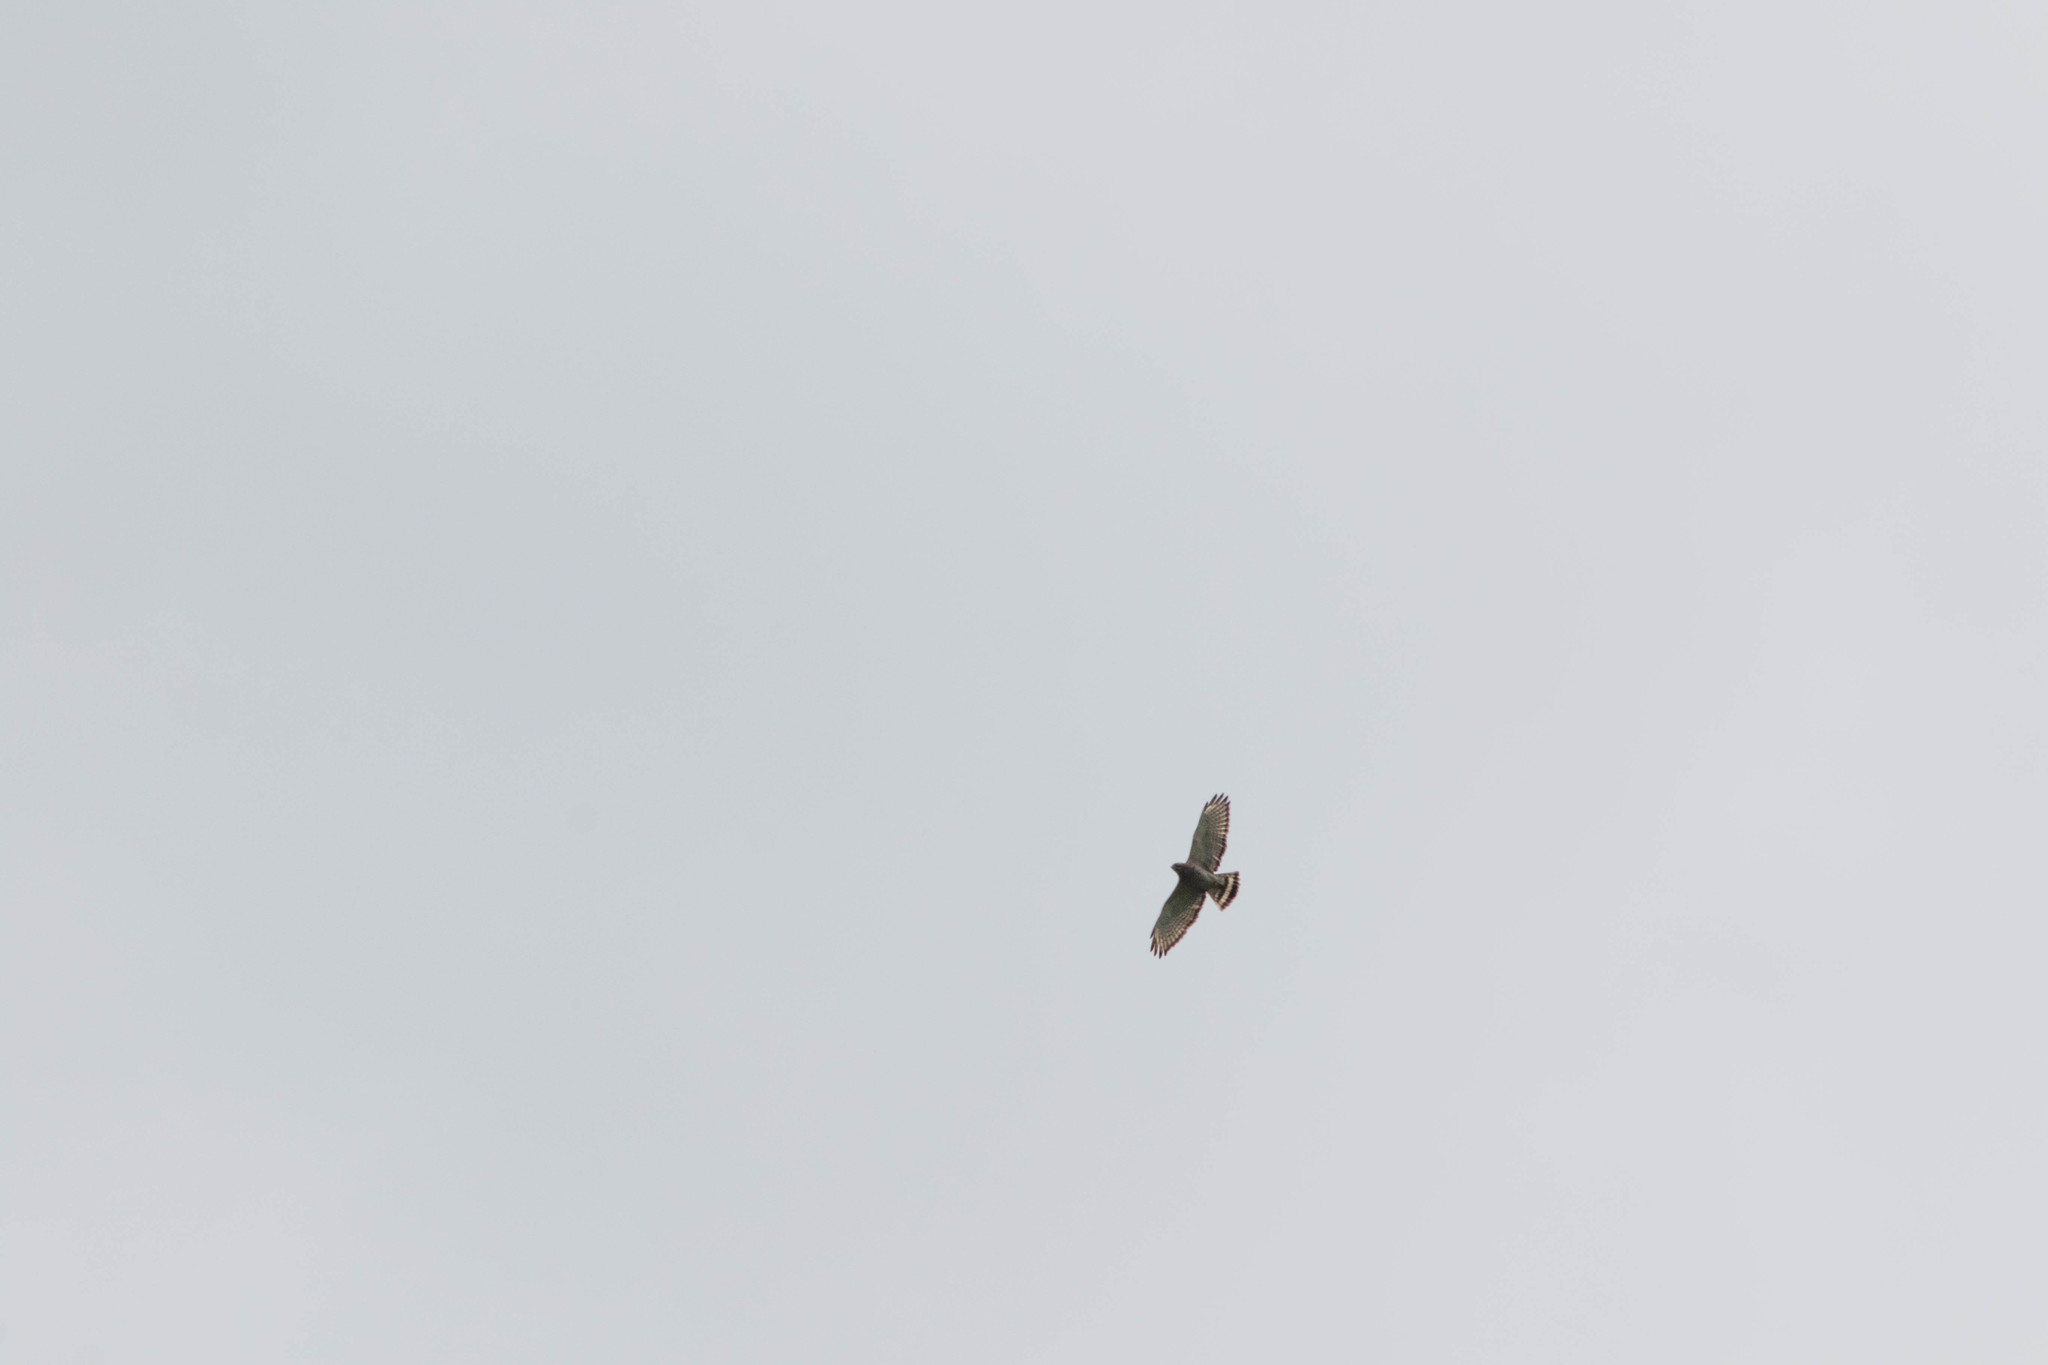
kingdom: Animalia
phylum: Chordata
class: Aves
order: Accipitriformes
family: Accipitridae
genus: Buteo
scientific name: Buteo platypterus
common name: Broad-winged hawk
